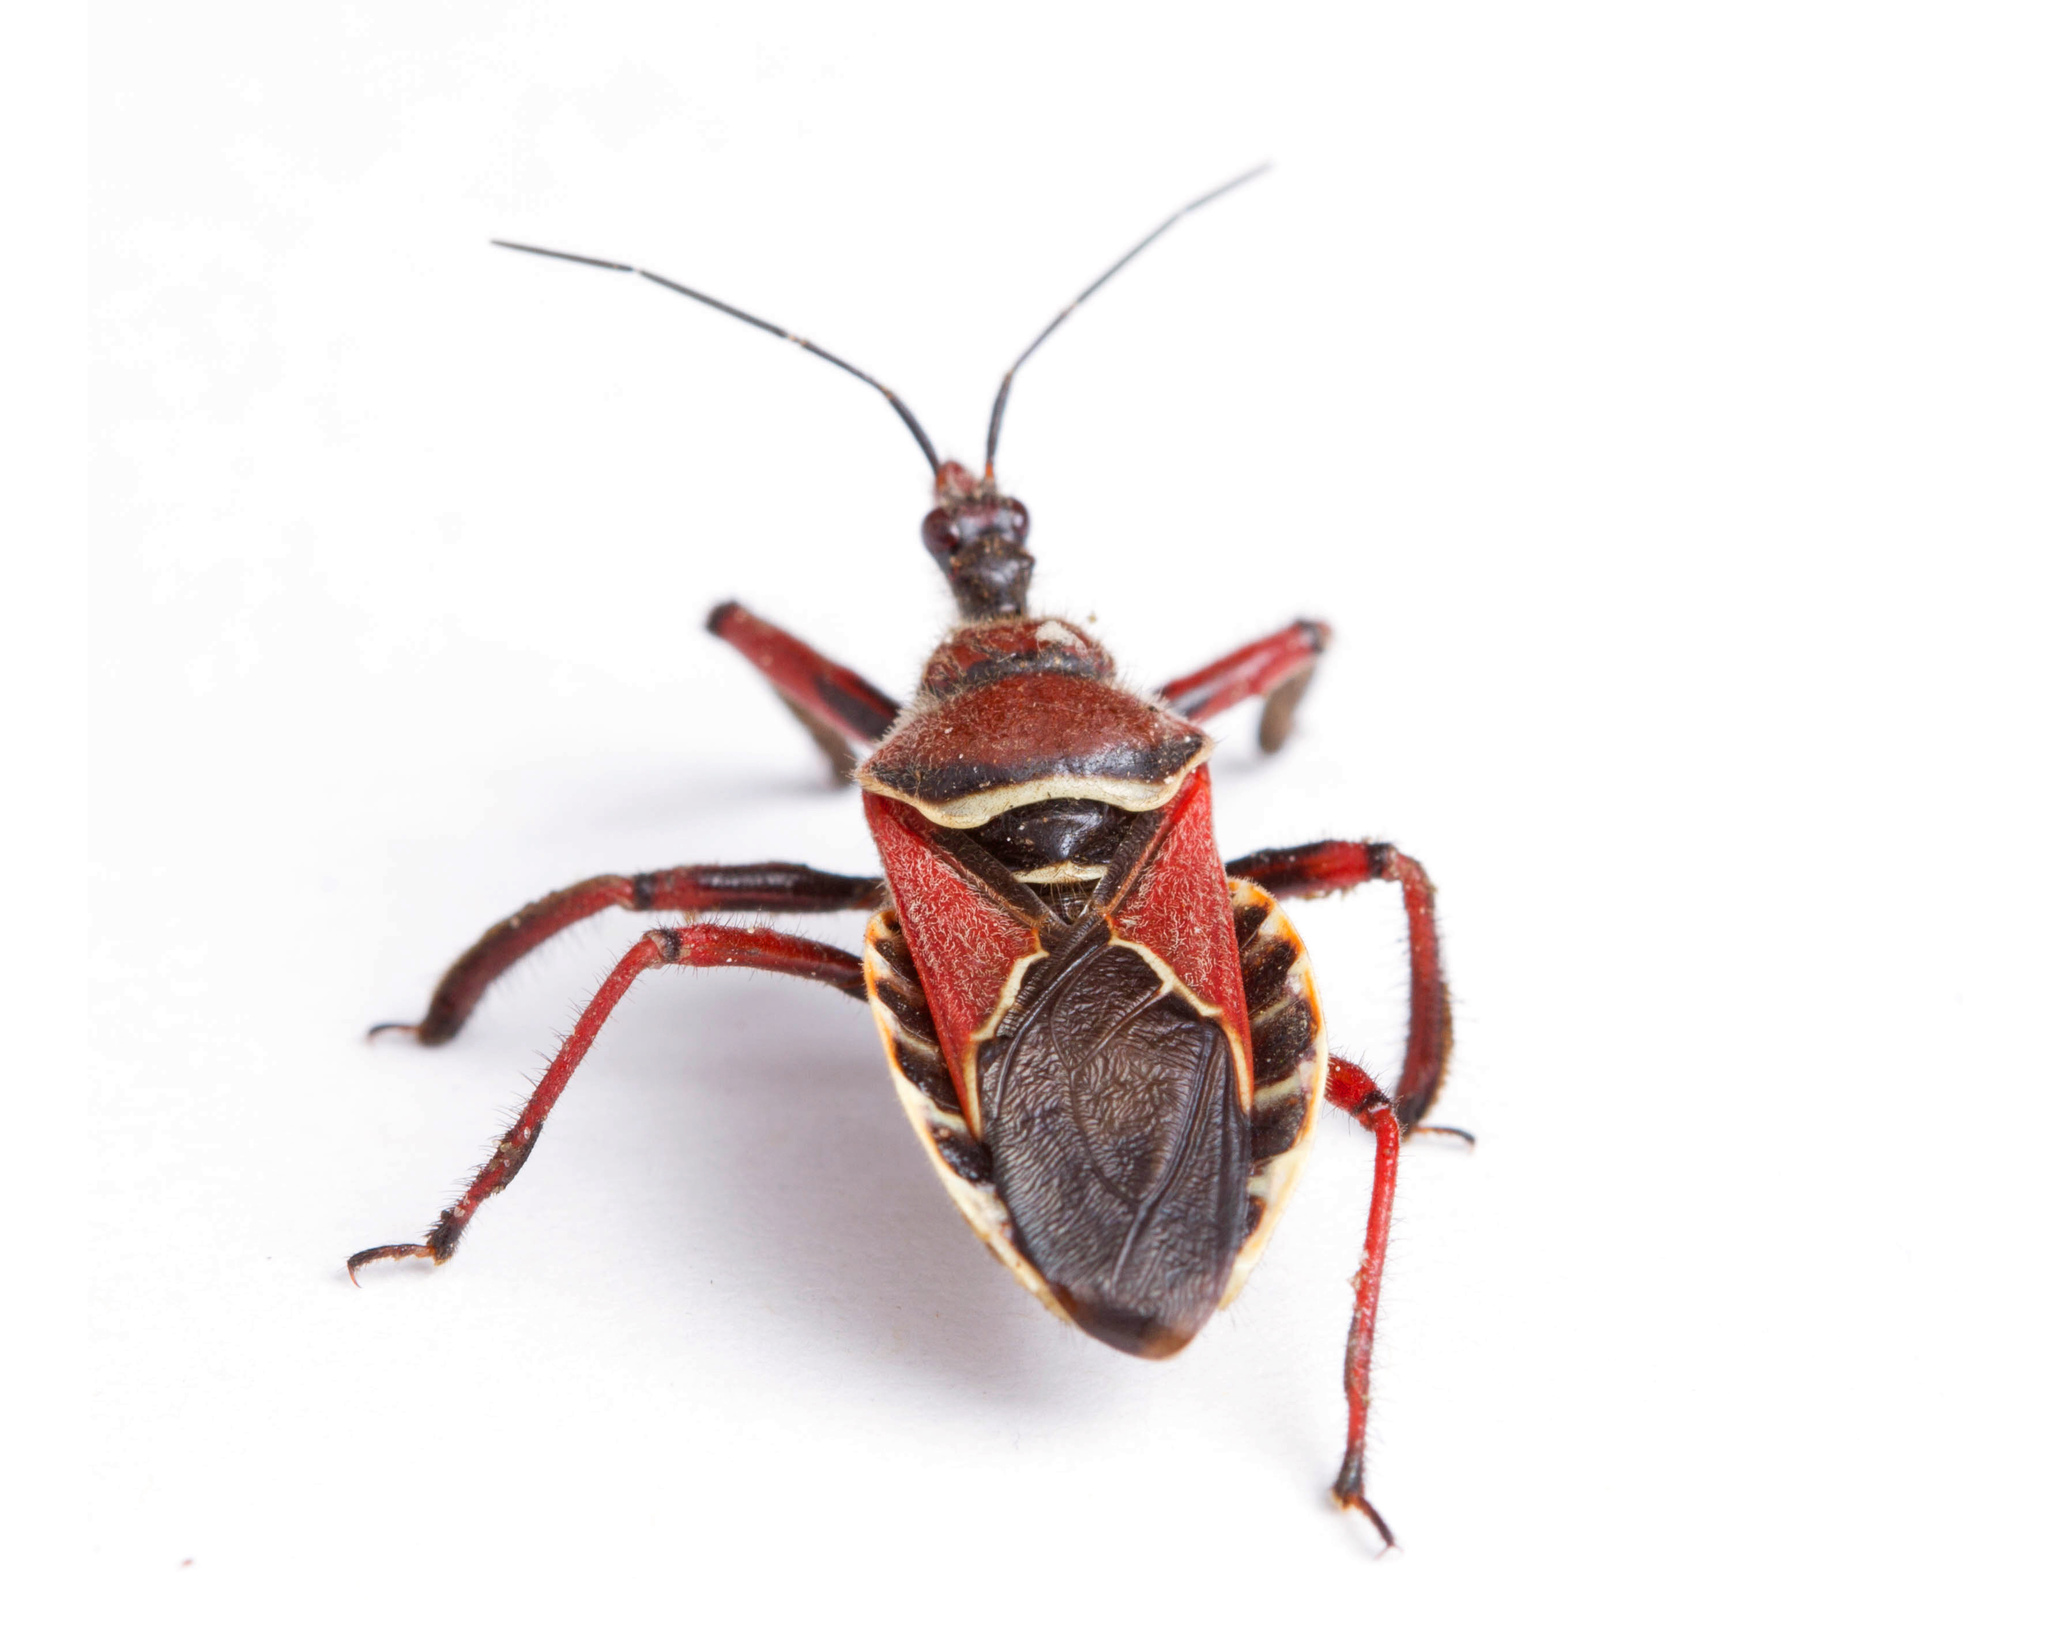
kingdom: Animalia
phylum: Arthropoda
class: Insecta
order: Hemiptera
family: Reduviidae
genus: Apiomerus
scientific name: Apiomerus spissipes
